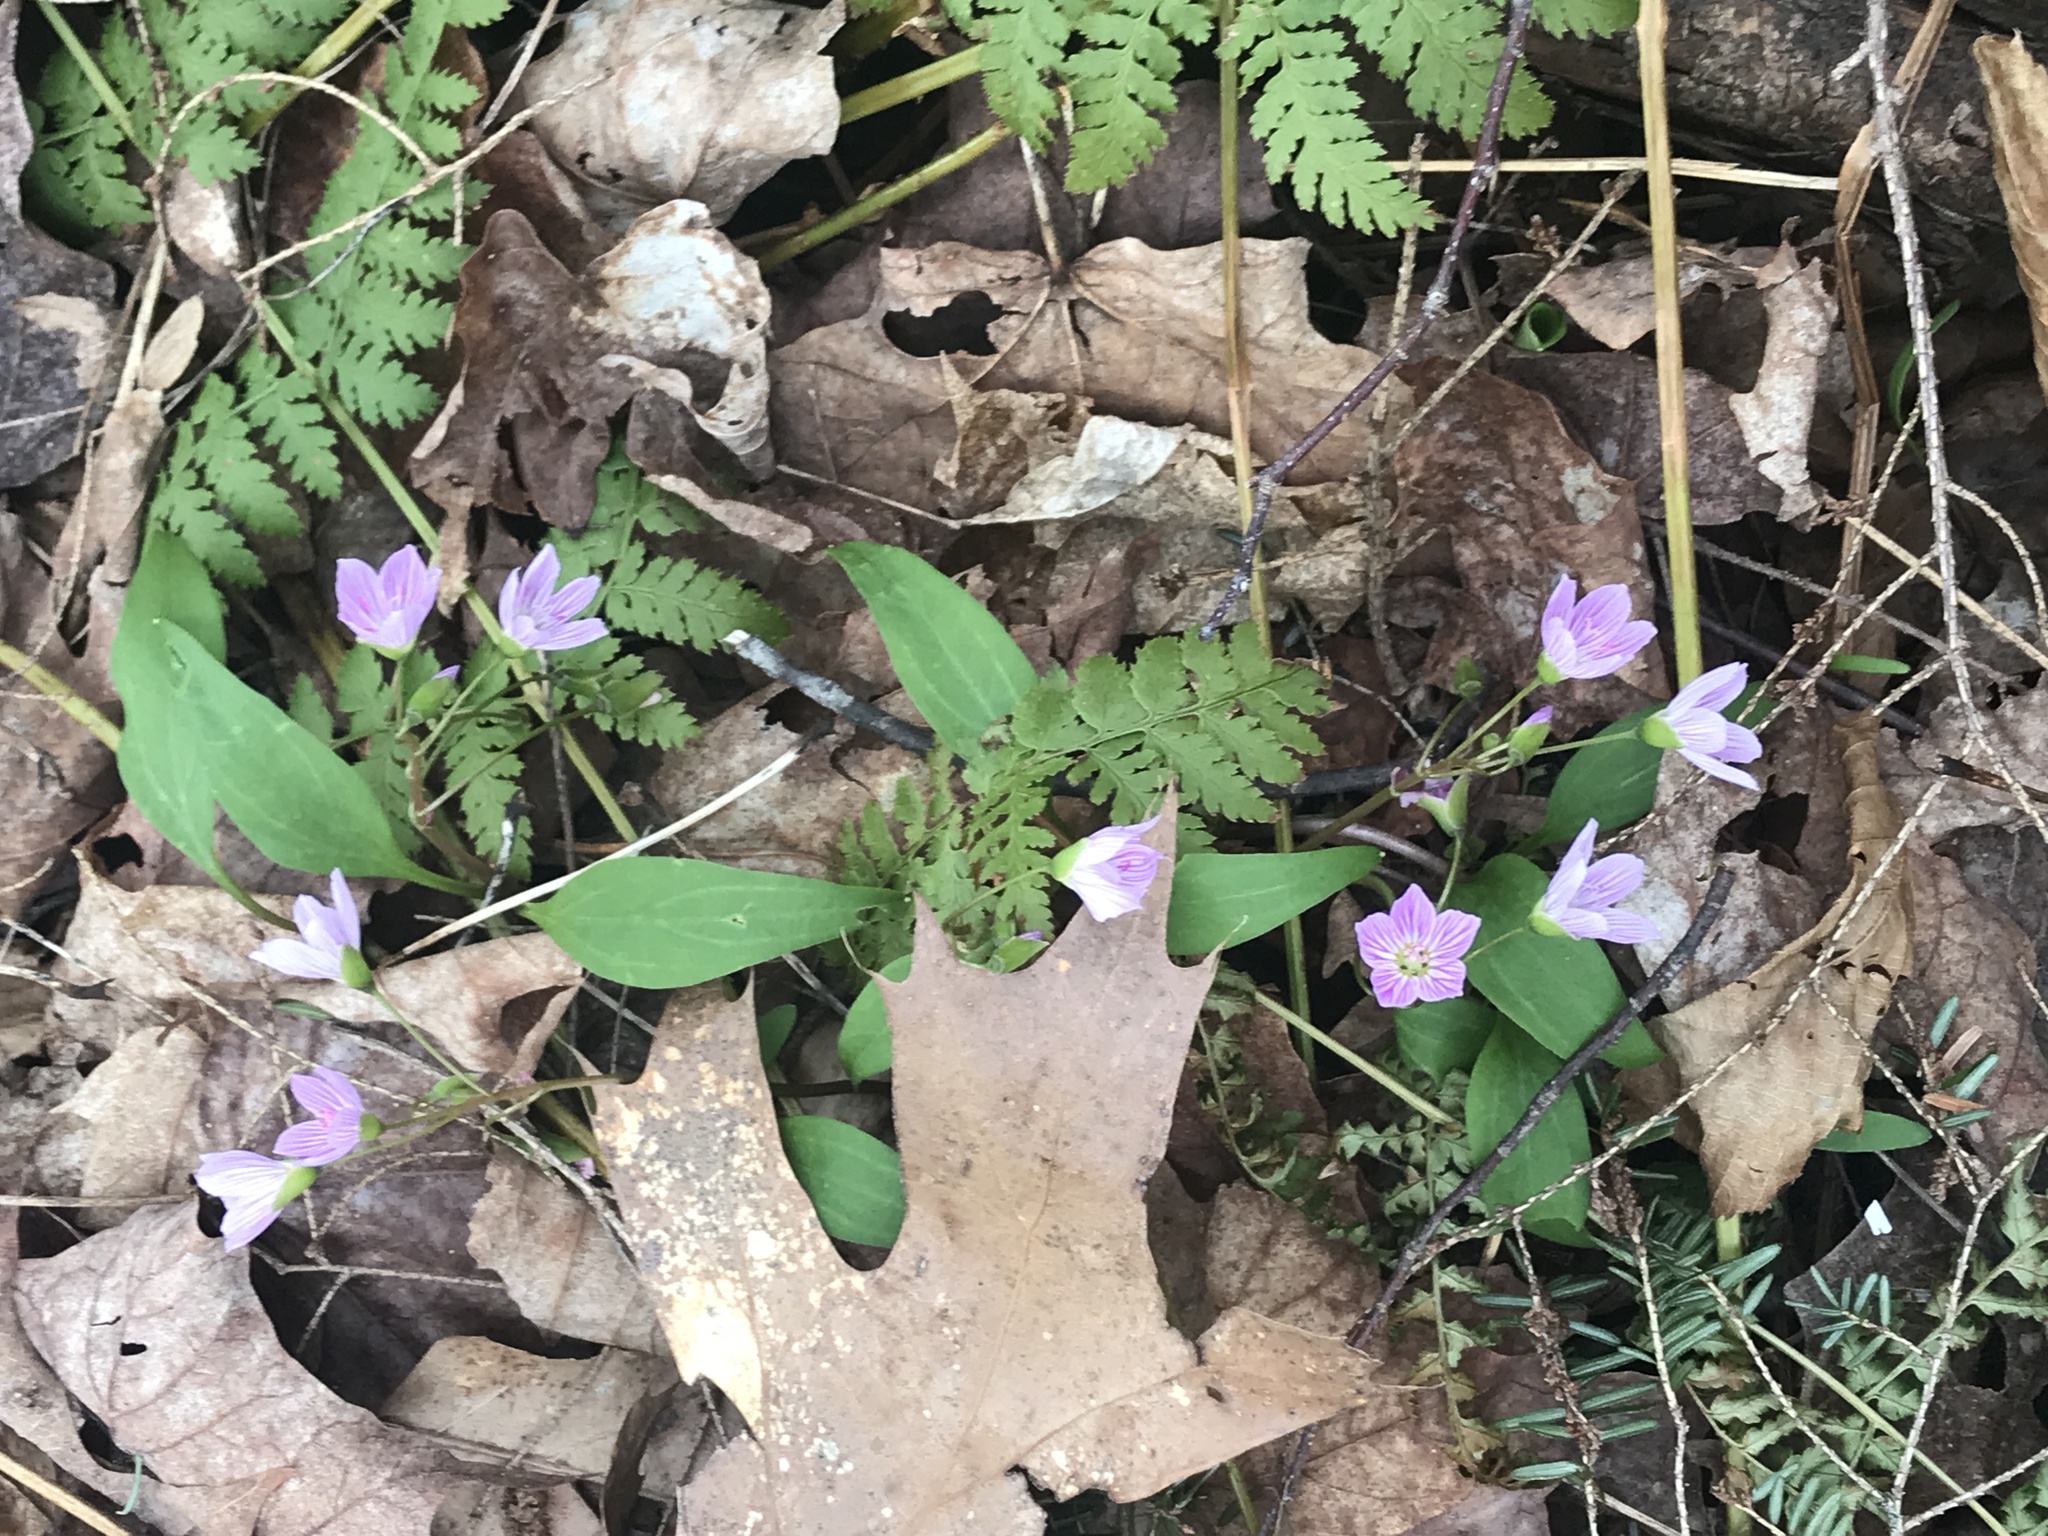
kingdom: Plantae
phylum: Tracheophyta
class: Magnoliopsida
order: Caryophyllales
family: Montiaceae
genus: Claytonia
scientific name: Claytonia caroliniana
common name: Carolina spring beauty
